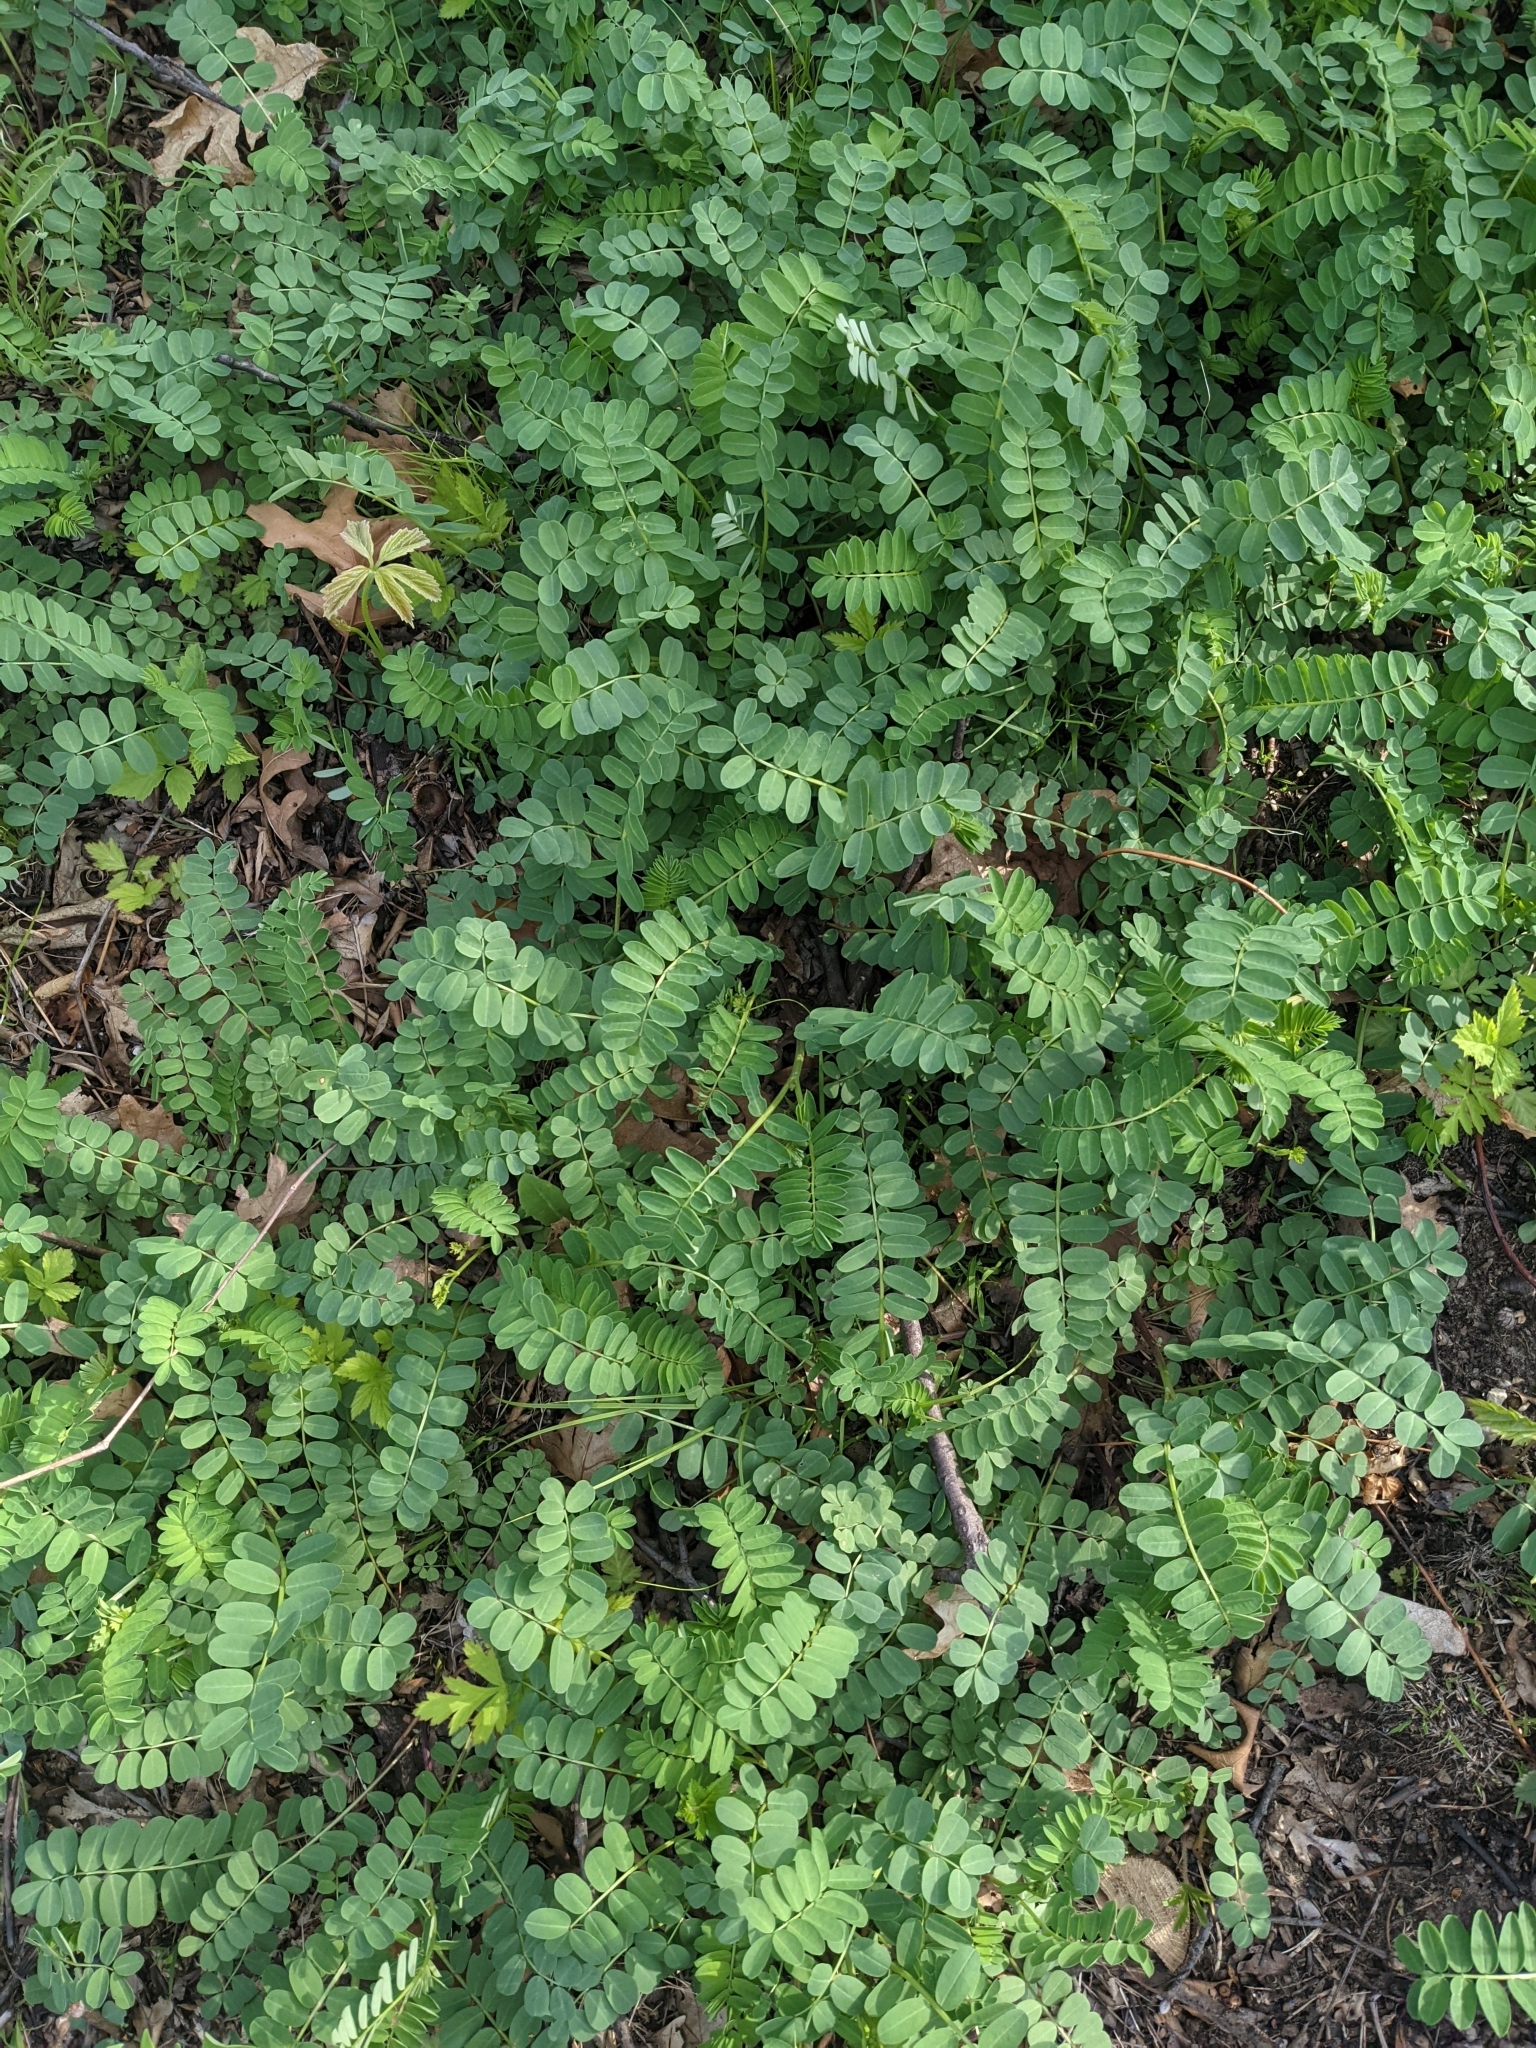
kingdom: Plantae
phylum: Tracheophyta
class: Magnoliopsida
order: Fabales
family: Fabaceae
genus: Coronilla
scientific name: Coronilla varia
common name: Crownvetch
